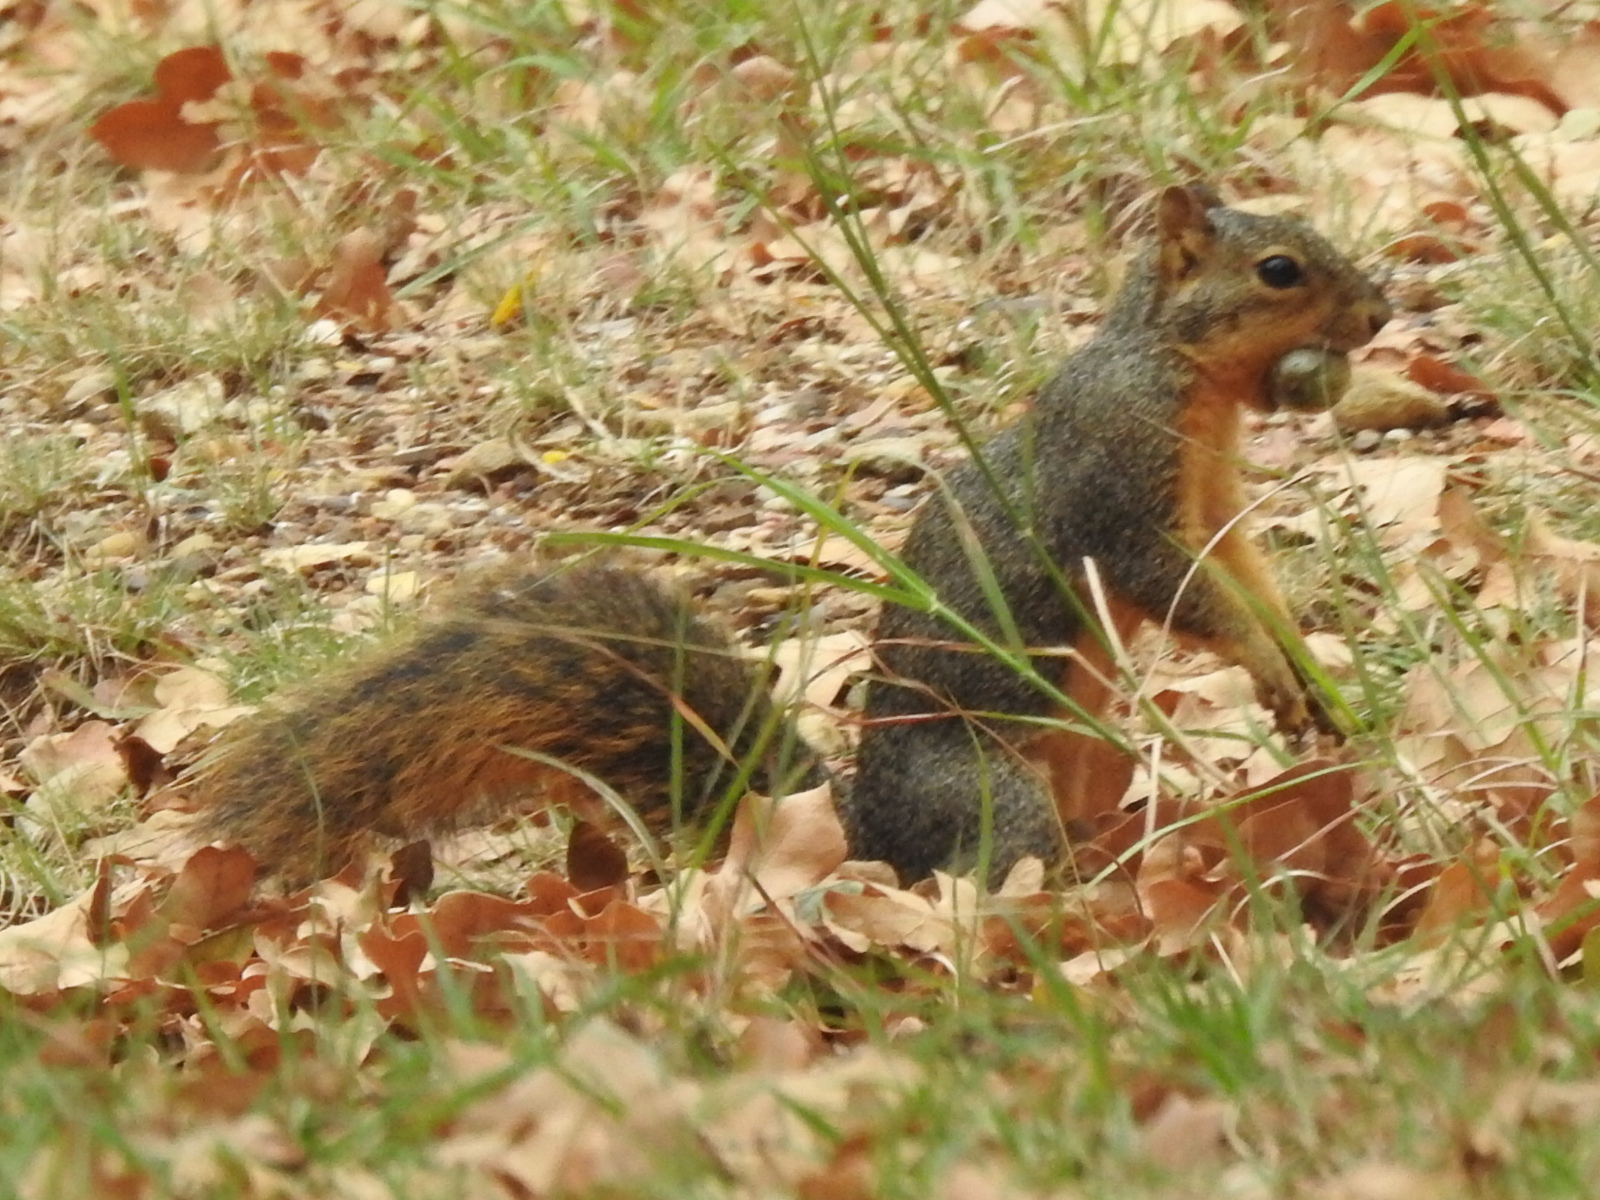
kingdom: Animalia
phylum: Chordata
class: Mammalia
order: Rodentia
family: Sciuridae
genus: Sciurus
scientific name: Sciurus niger
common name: Fox squirrel
